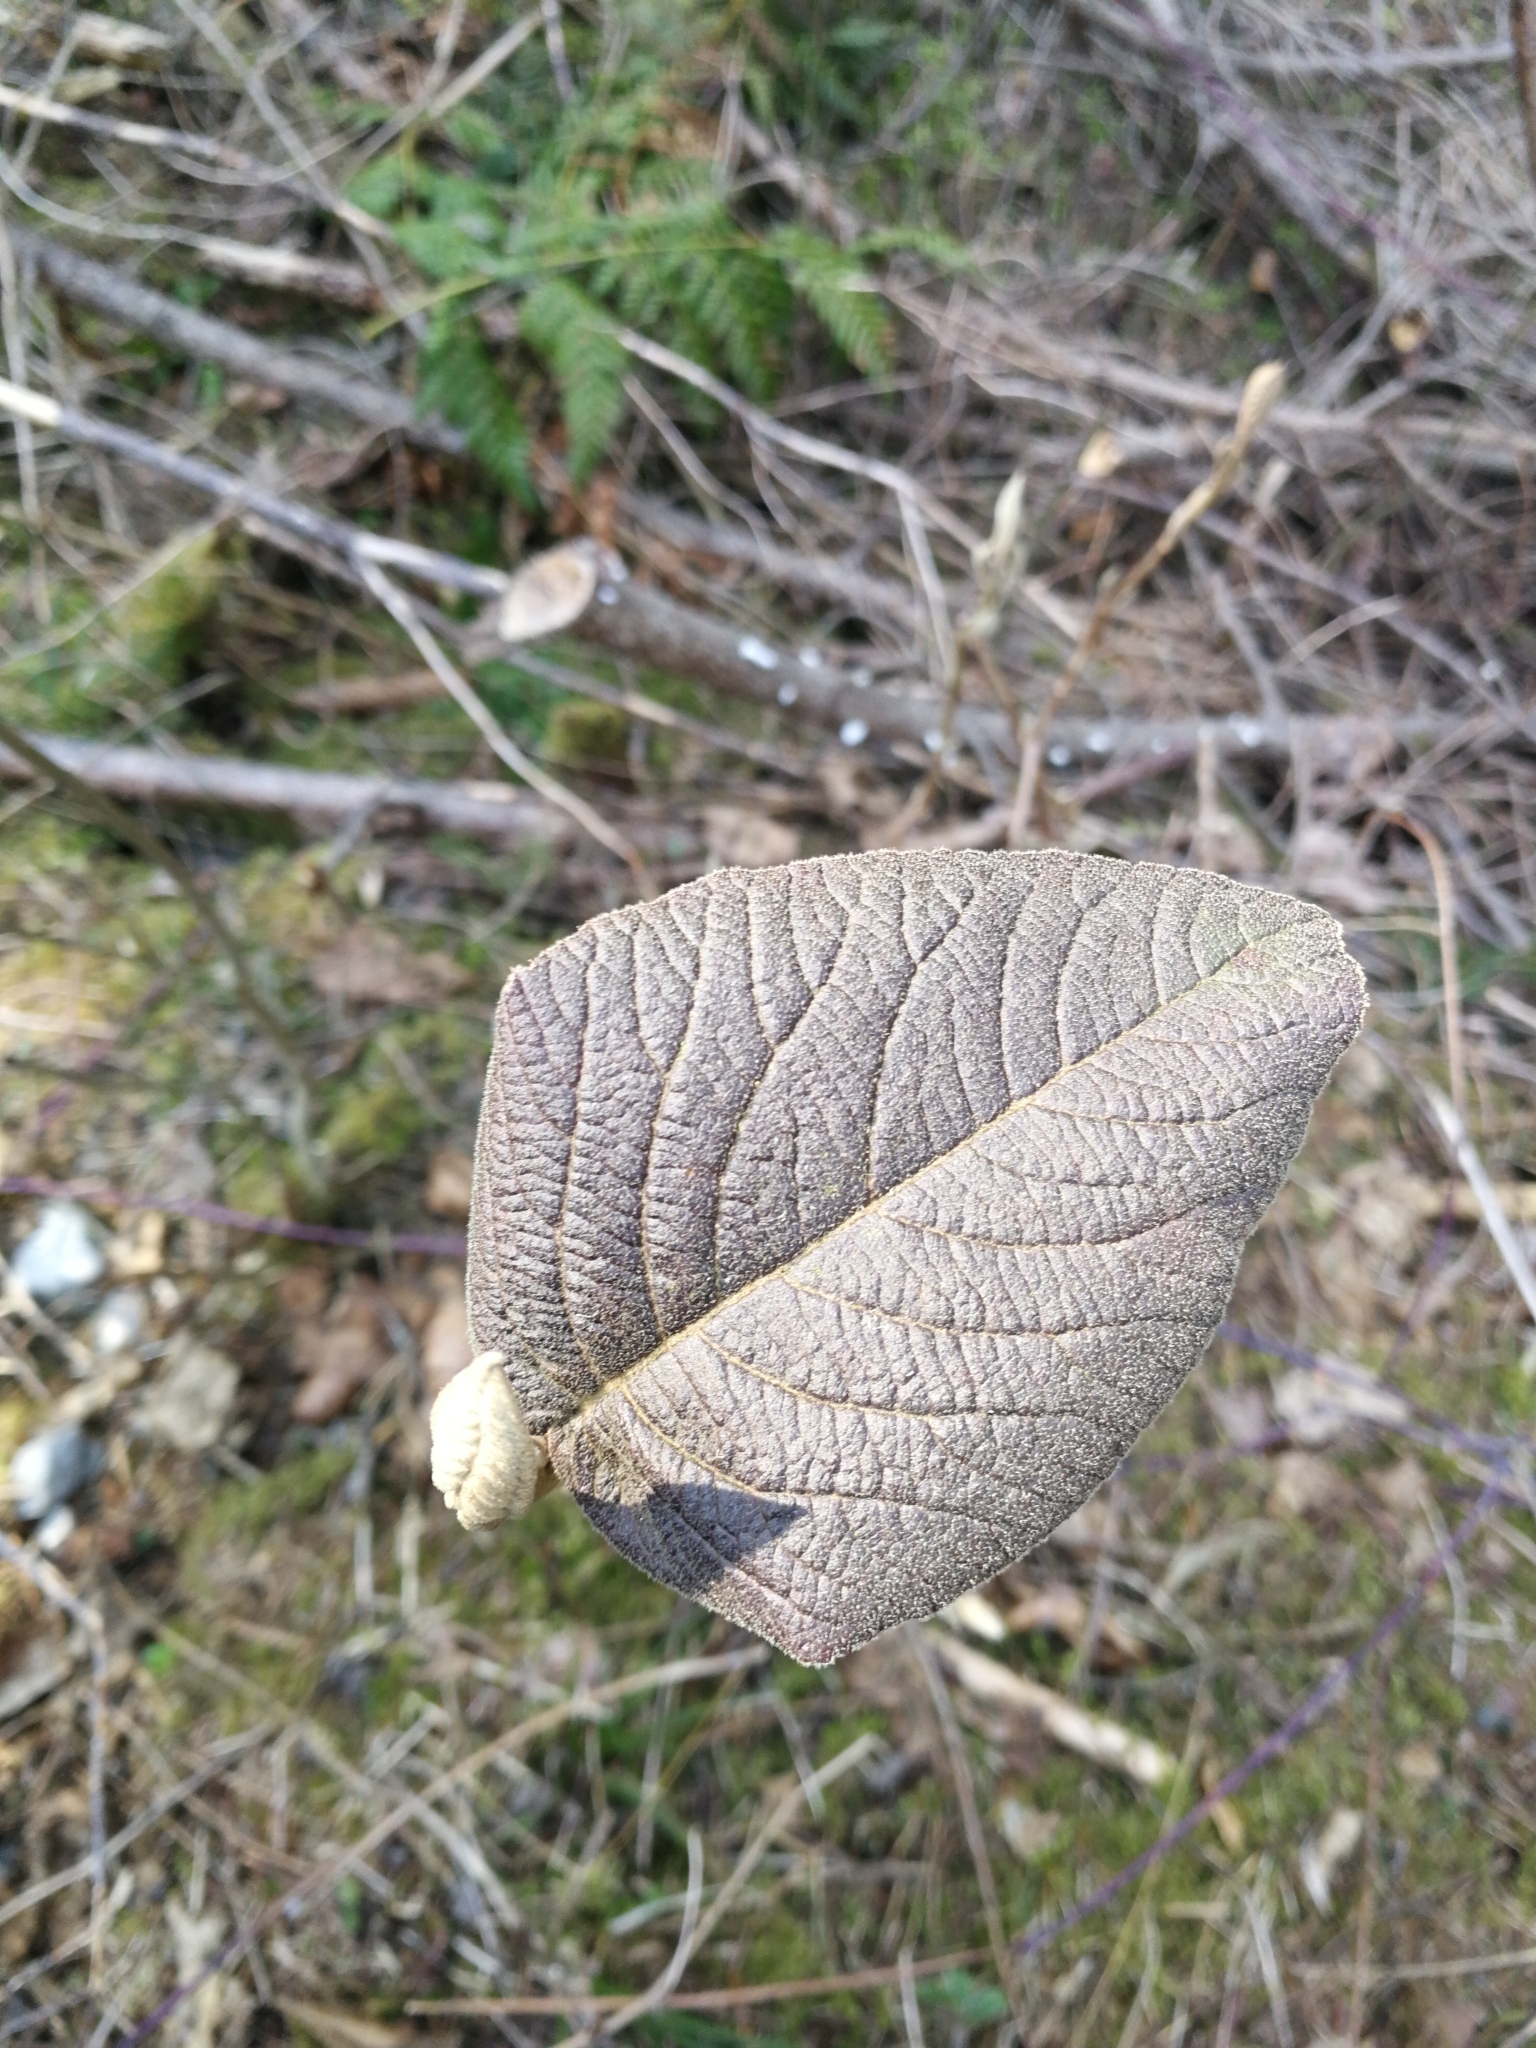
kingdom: Plantae
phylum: Tracheophyta
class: Magnoliopsida
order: Dipsacales
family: Viburnaceae
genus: Viburnum
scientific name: Viburnum lantana
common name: Wayfaring tree
